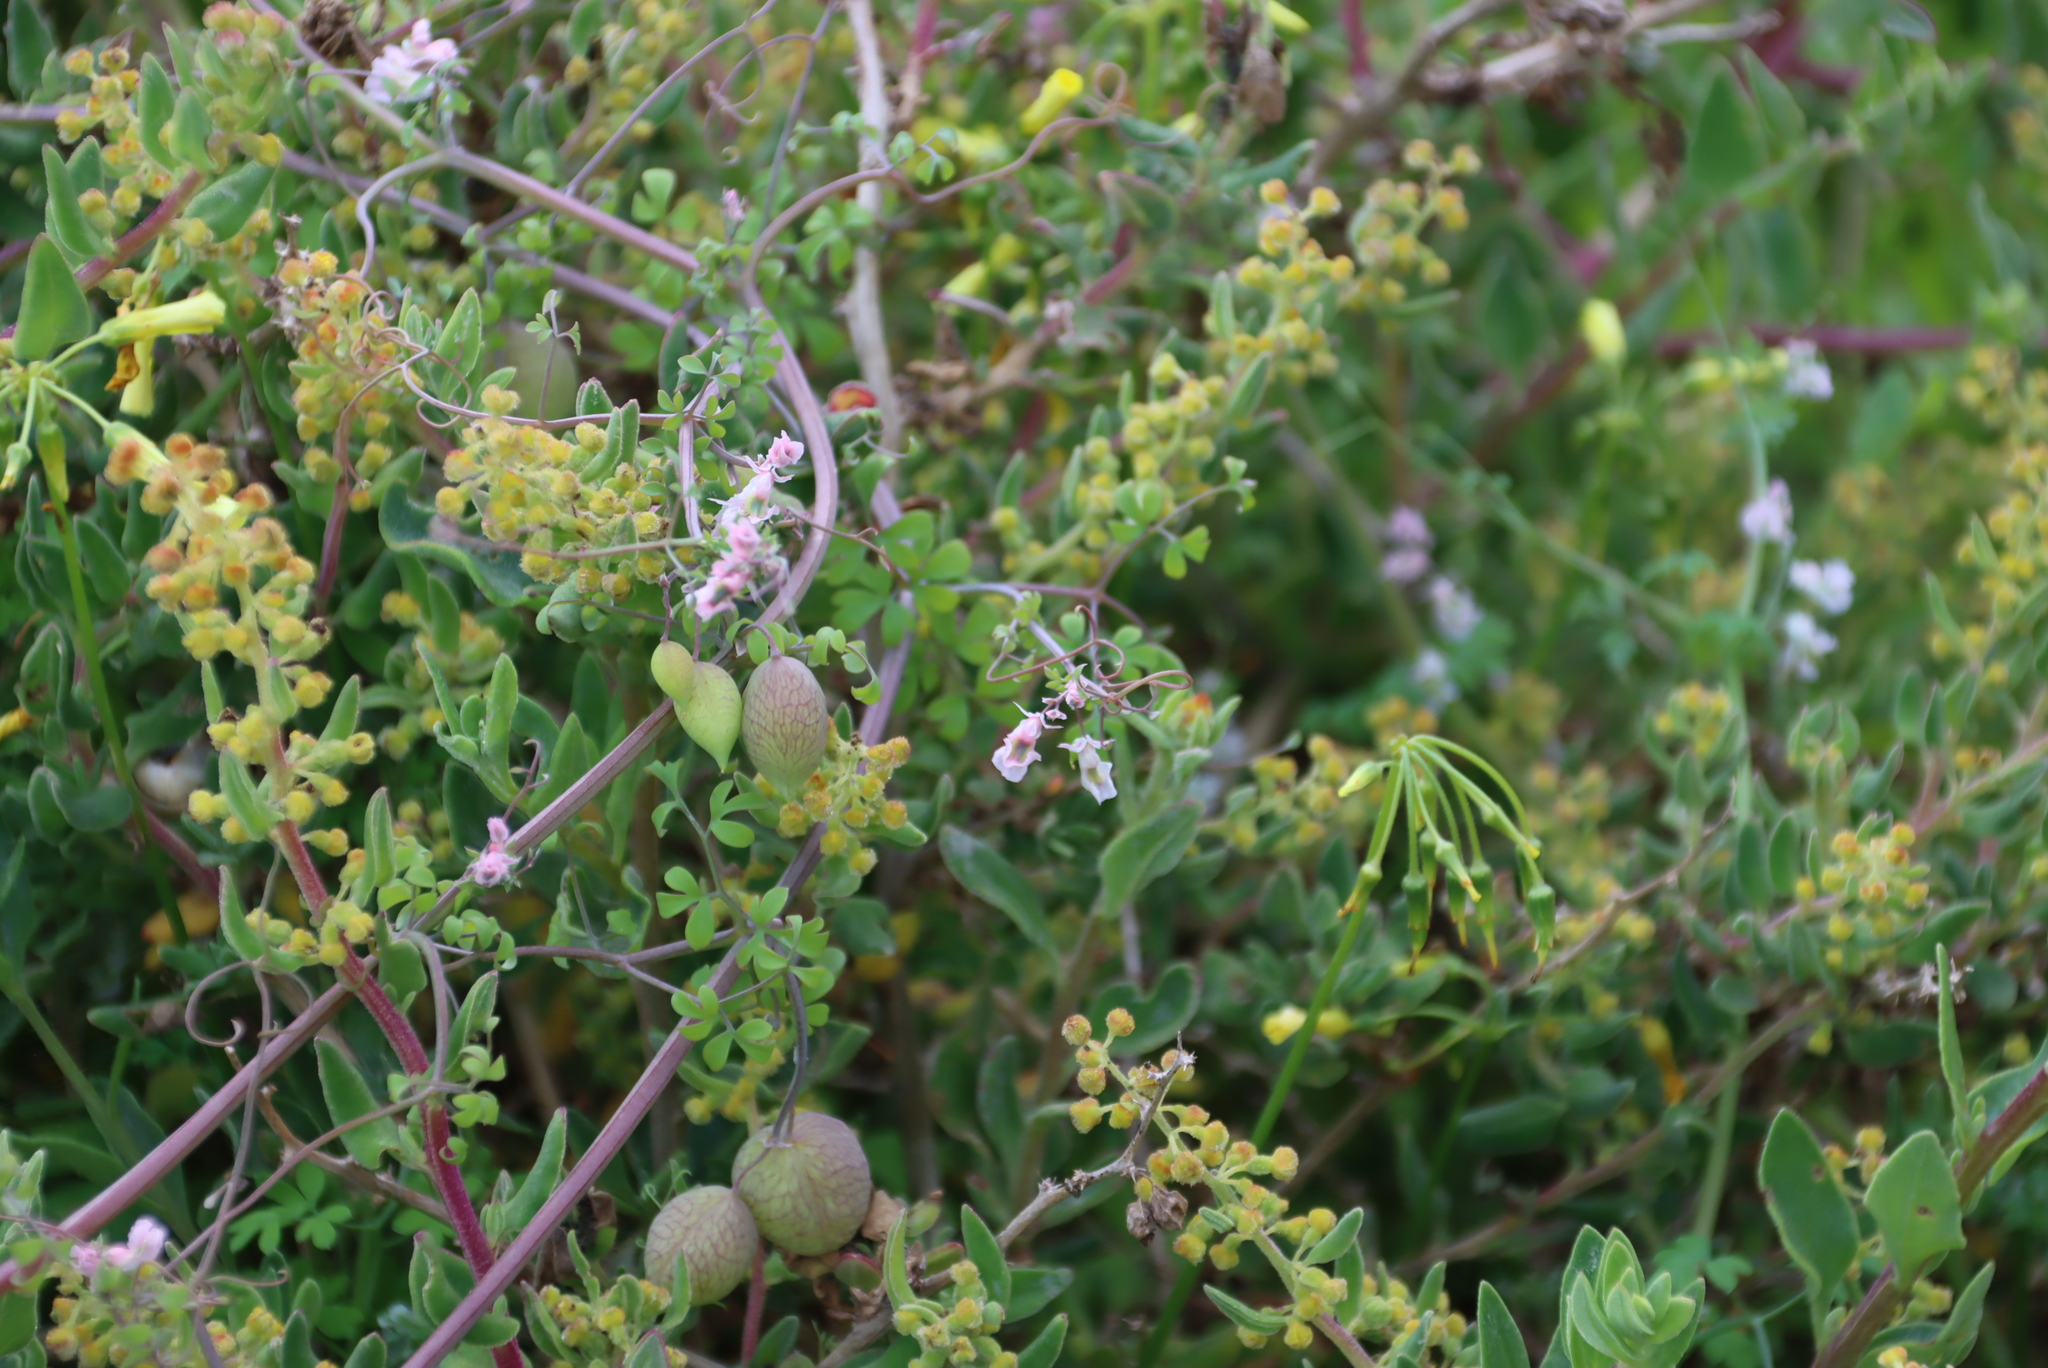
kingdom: Plantae
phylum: Tracheophyta
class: Magnoliopsida
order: Ranunculales
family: Papaveraceae
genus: Cysticapnos
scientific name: Cysticapnos vesicaria
